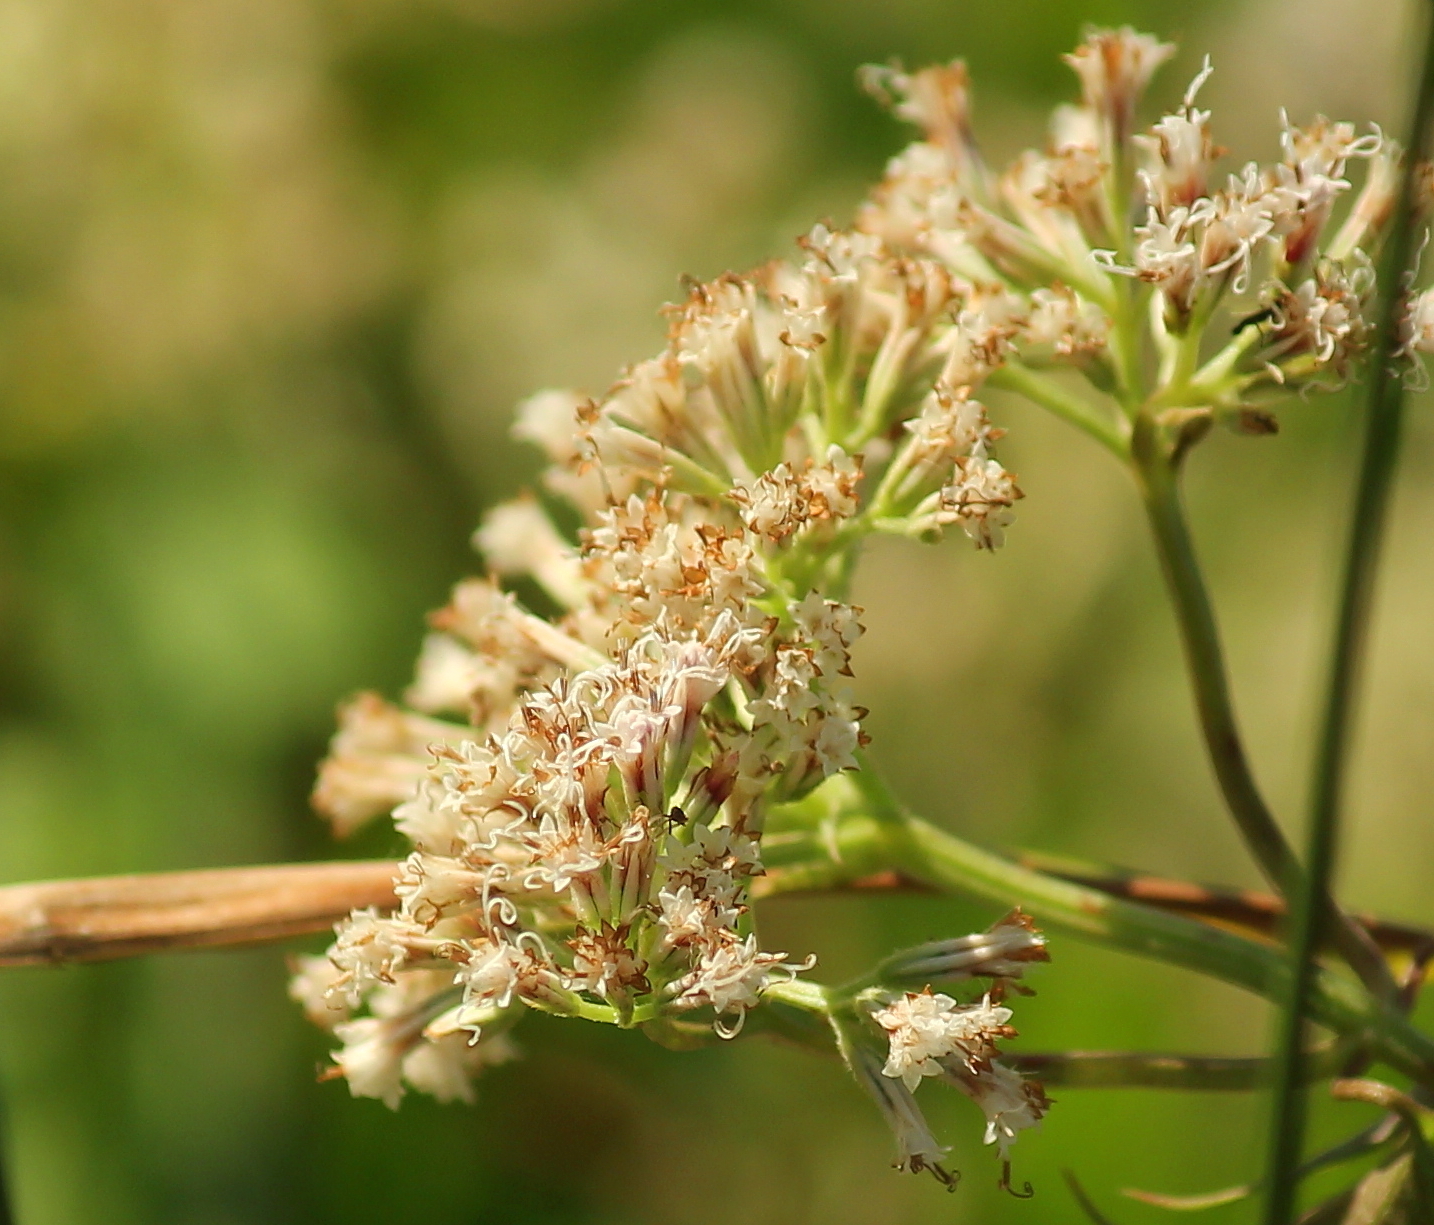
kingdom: Plantae
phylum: Tracheophyta
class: Magnoliopsida
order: Asterales
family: Asteraceae
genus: Mikania
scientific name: Mikania scandens
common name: Climbing hempvine
